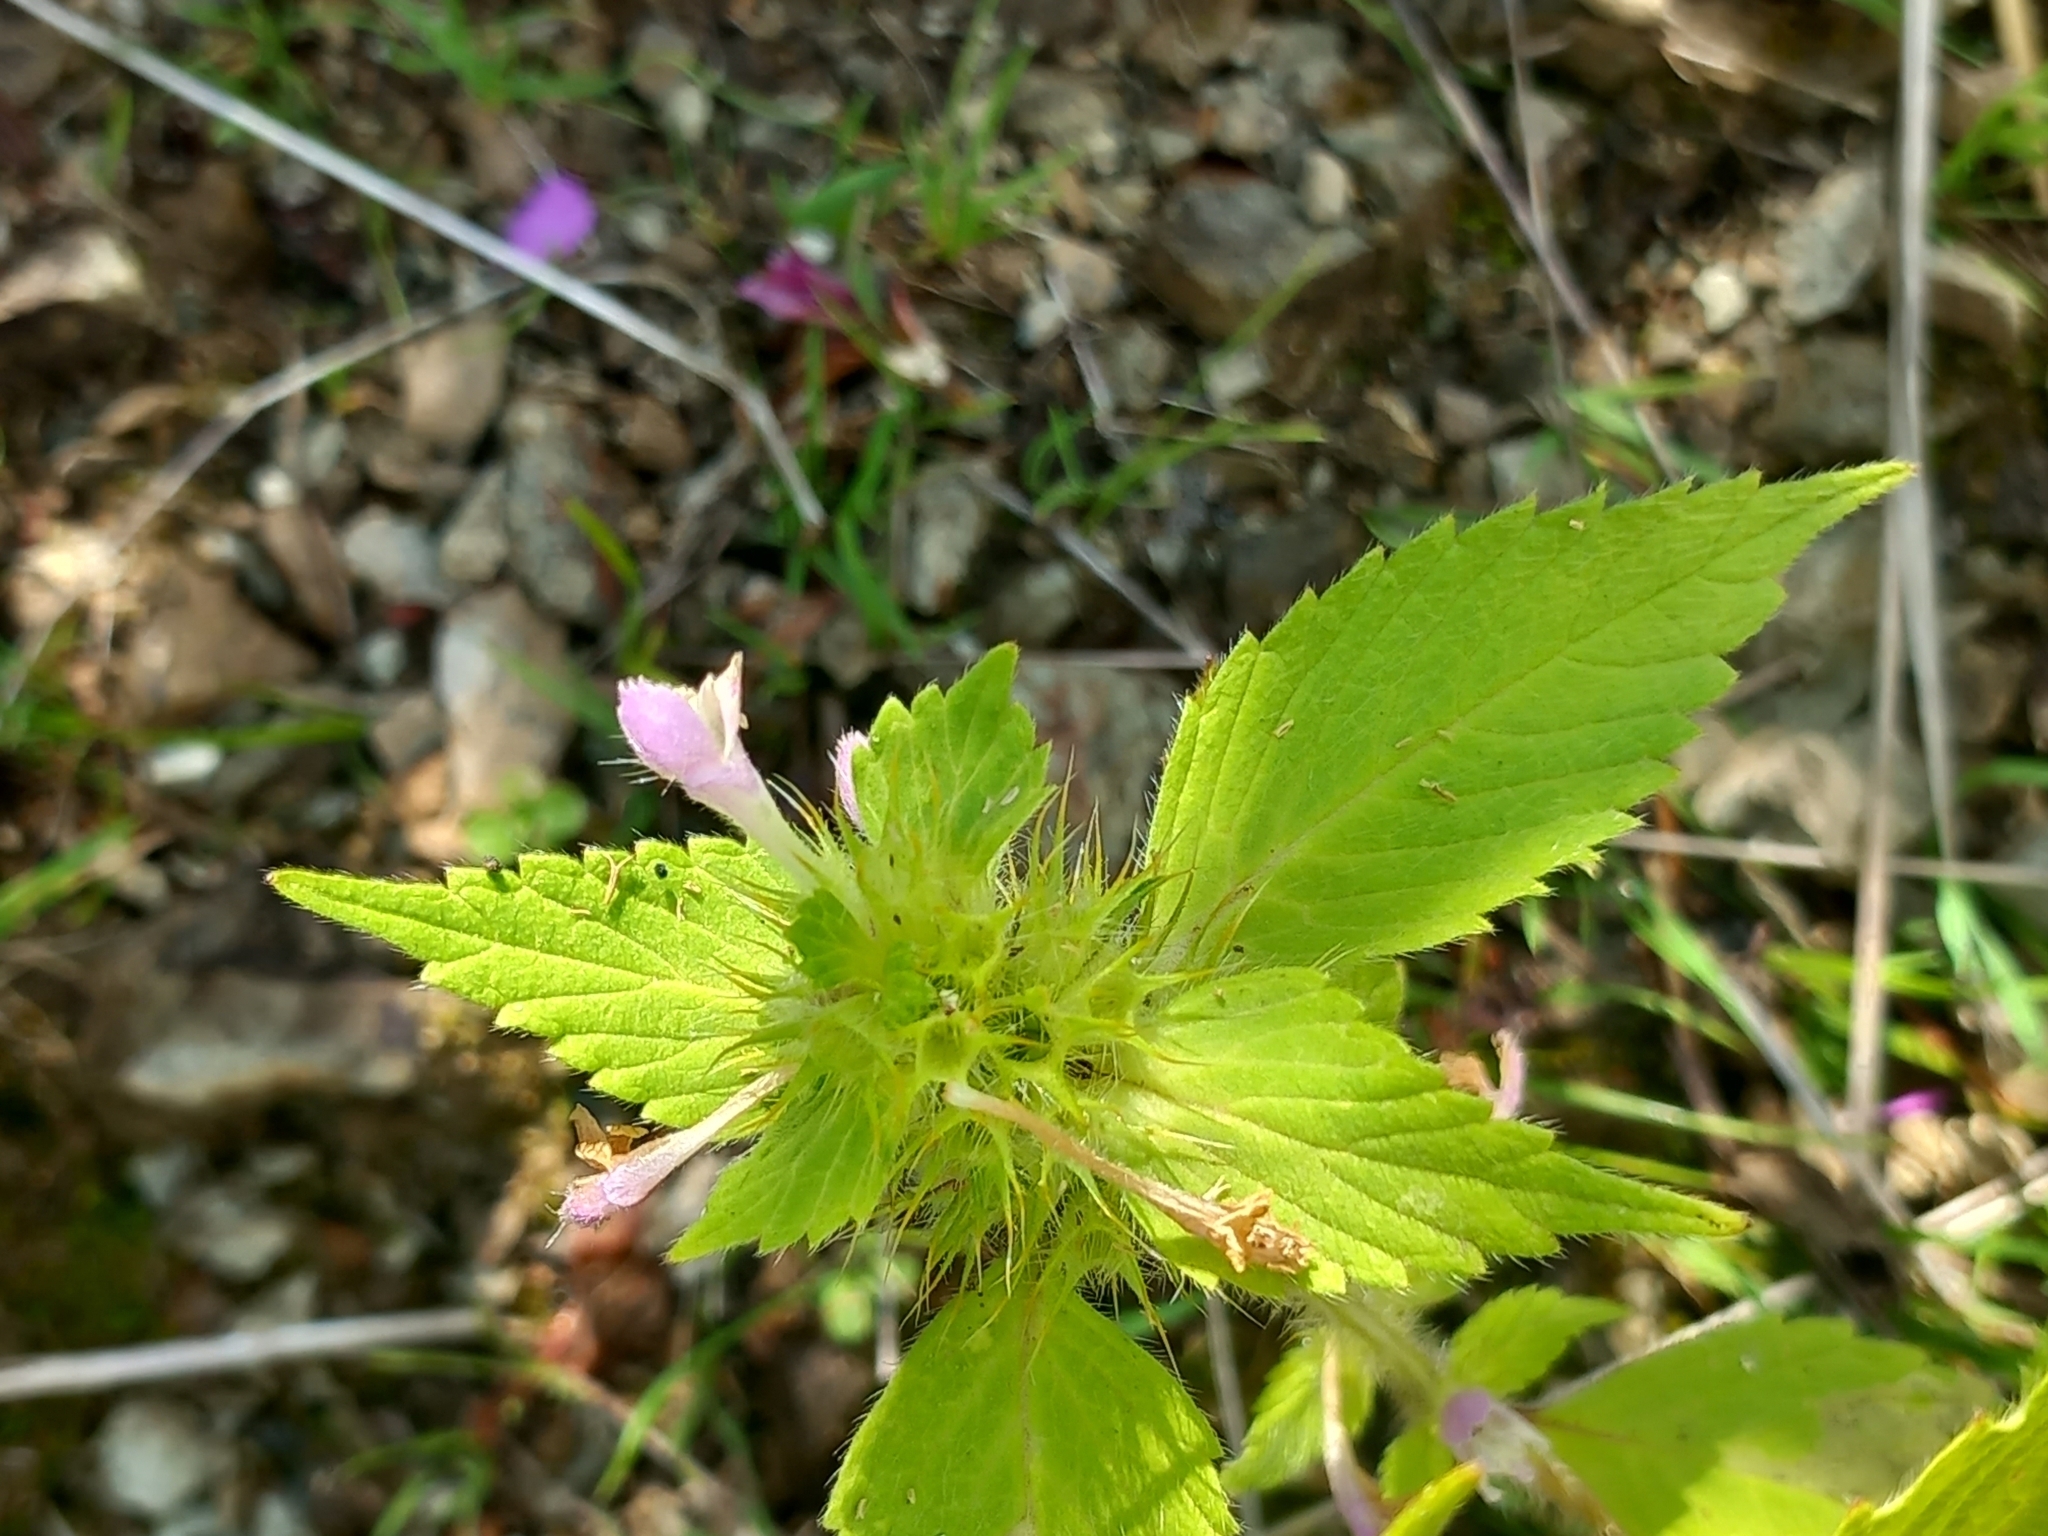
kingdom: Plantae
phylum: Tracheophyta
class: Magnoliopsida
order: Lamiales
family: Lamiaceae
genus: Galeopsis
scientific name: Galeopsis bifida
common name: Bifid hemp-nettle
